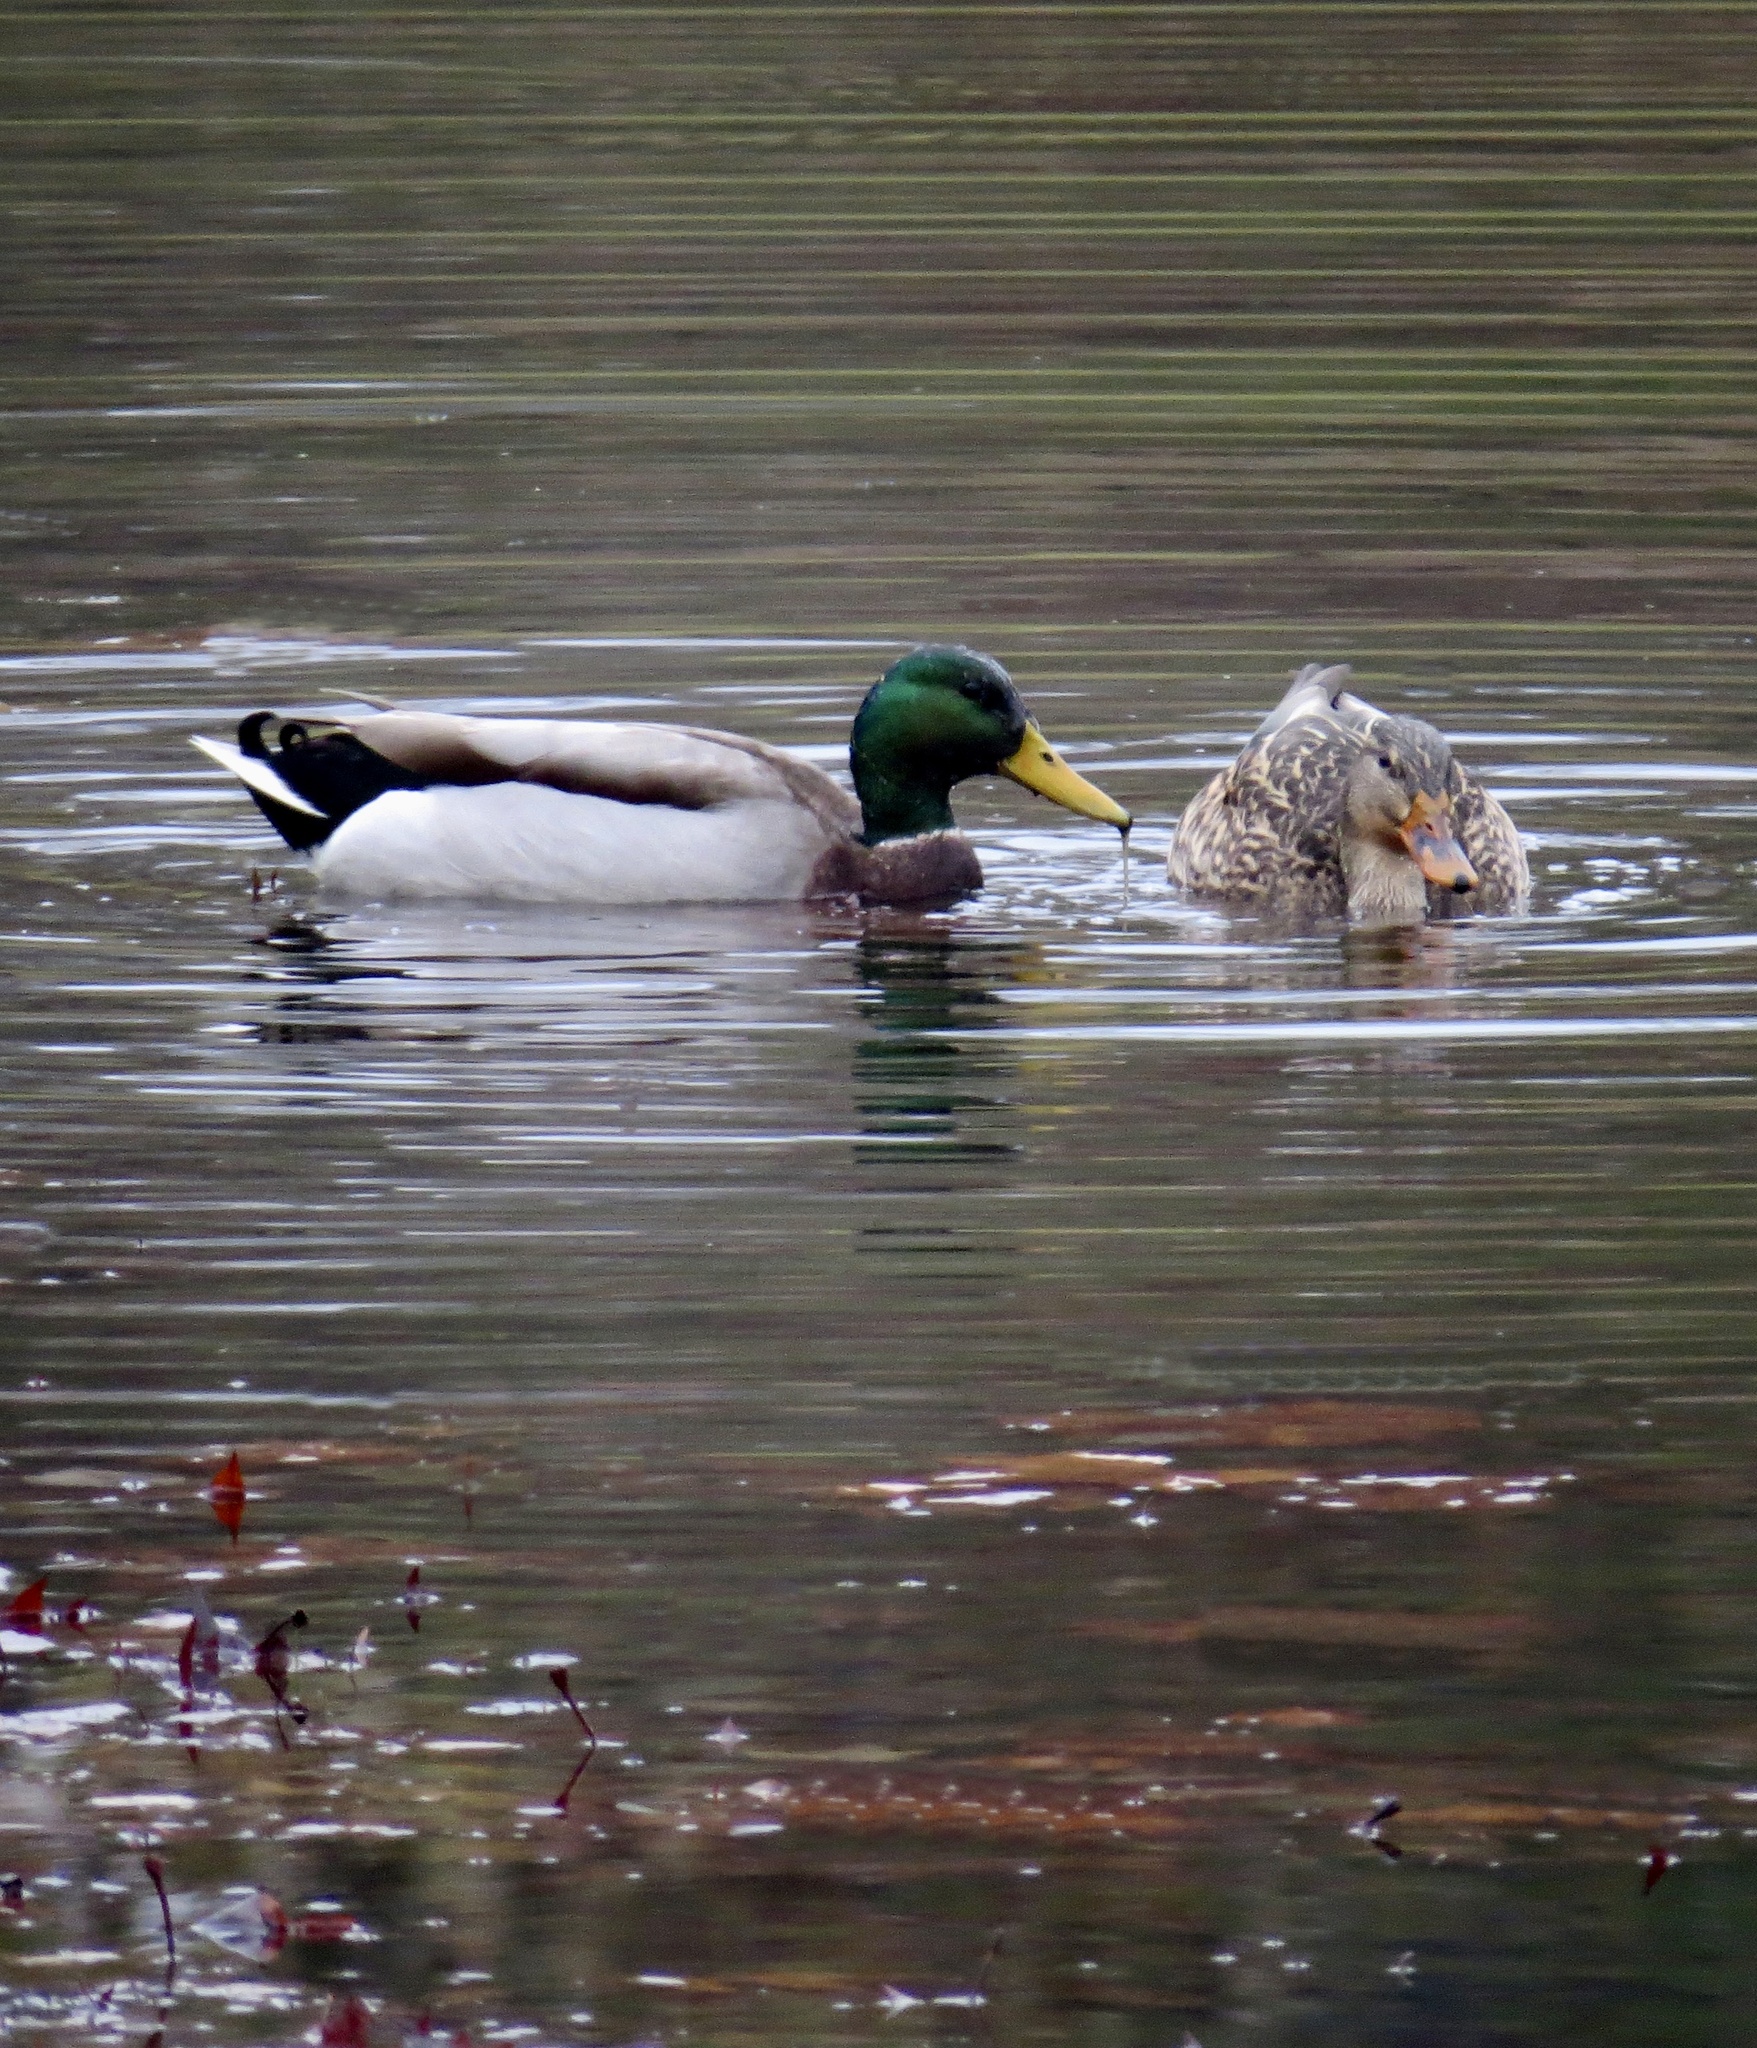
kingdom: Animalia
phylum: Chordata
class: Aves
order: Anseriformes
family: Anatidae
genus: Anas
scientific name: Anas platyrhynchos
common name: Mallard
